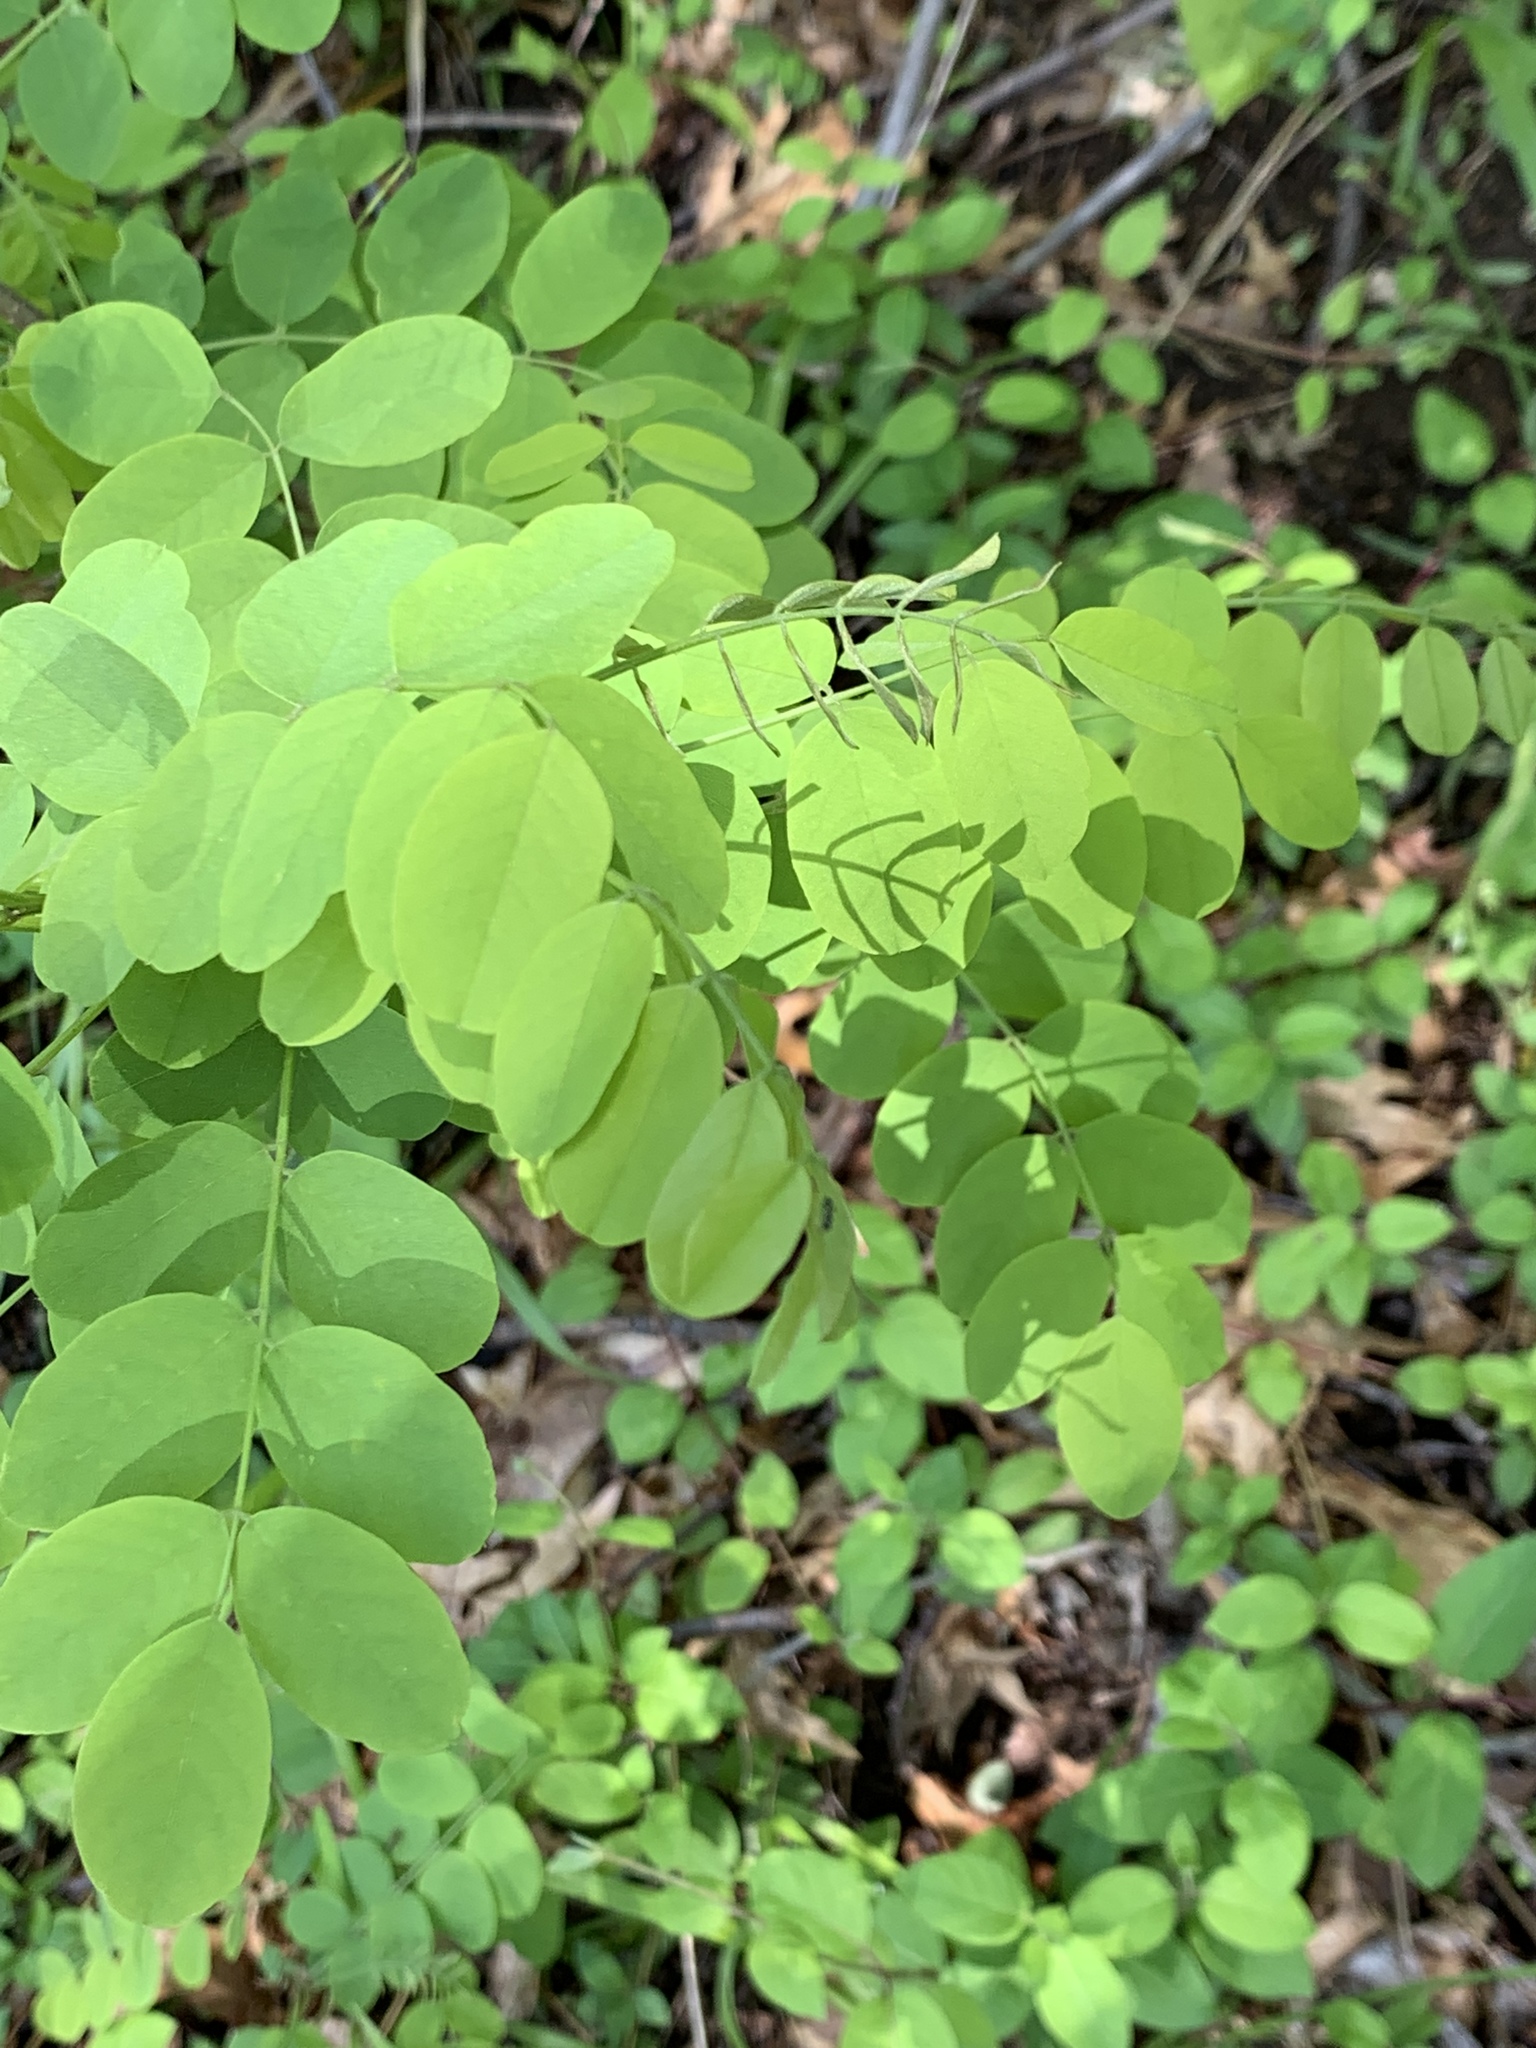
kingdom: Plantae
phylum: Tracheophyta
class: Magnoliopsida
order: Fabales
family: Fabaceae
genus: Robinia
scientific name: Robinia pseudoacacia
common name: Black locust
